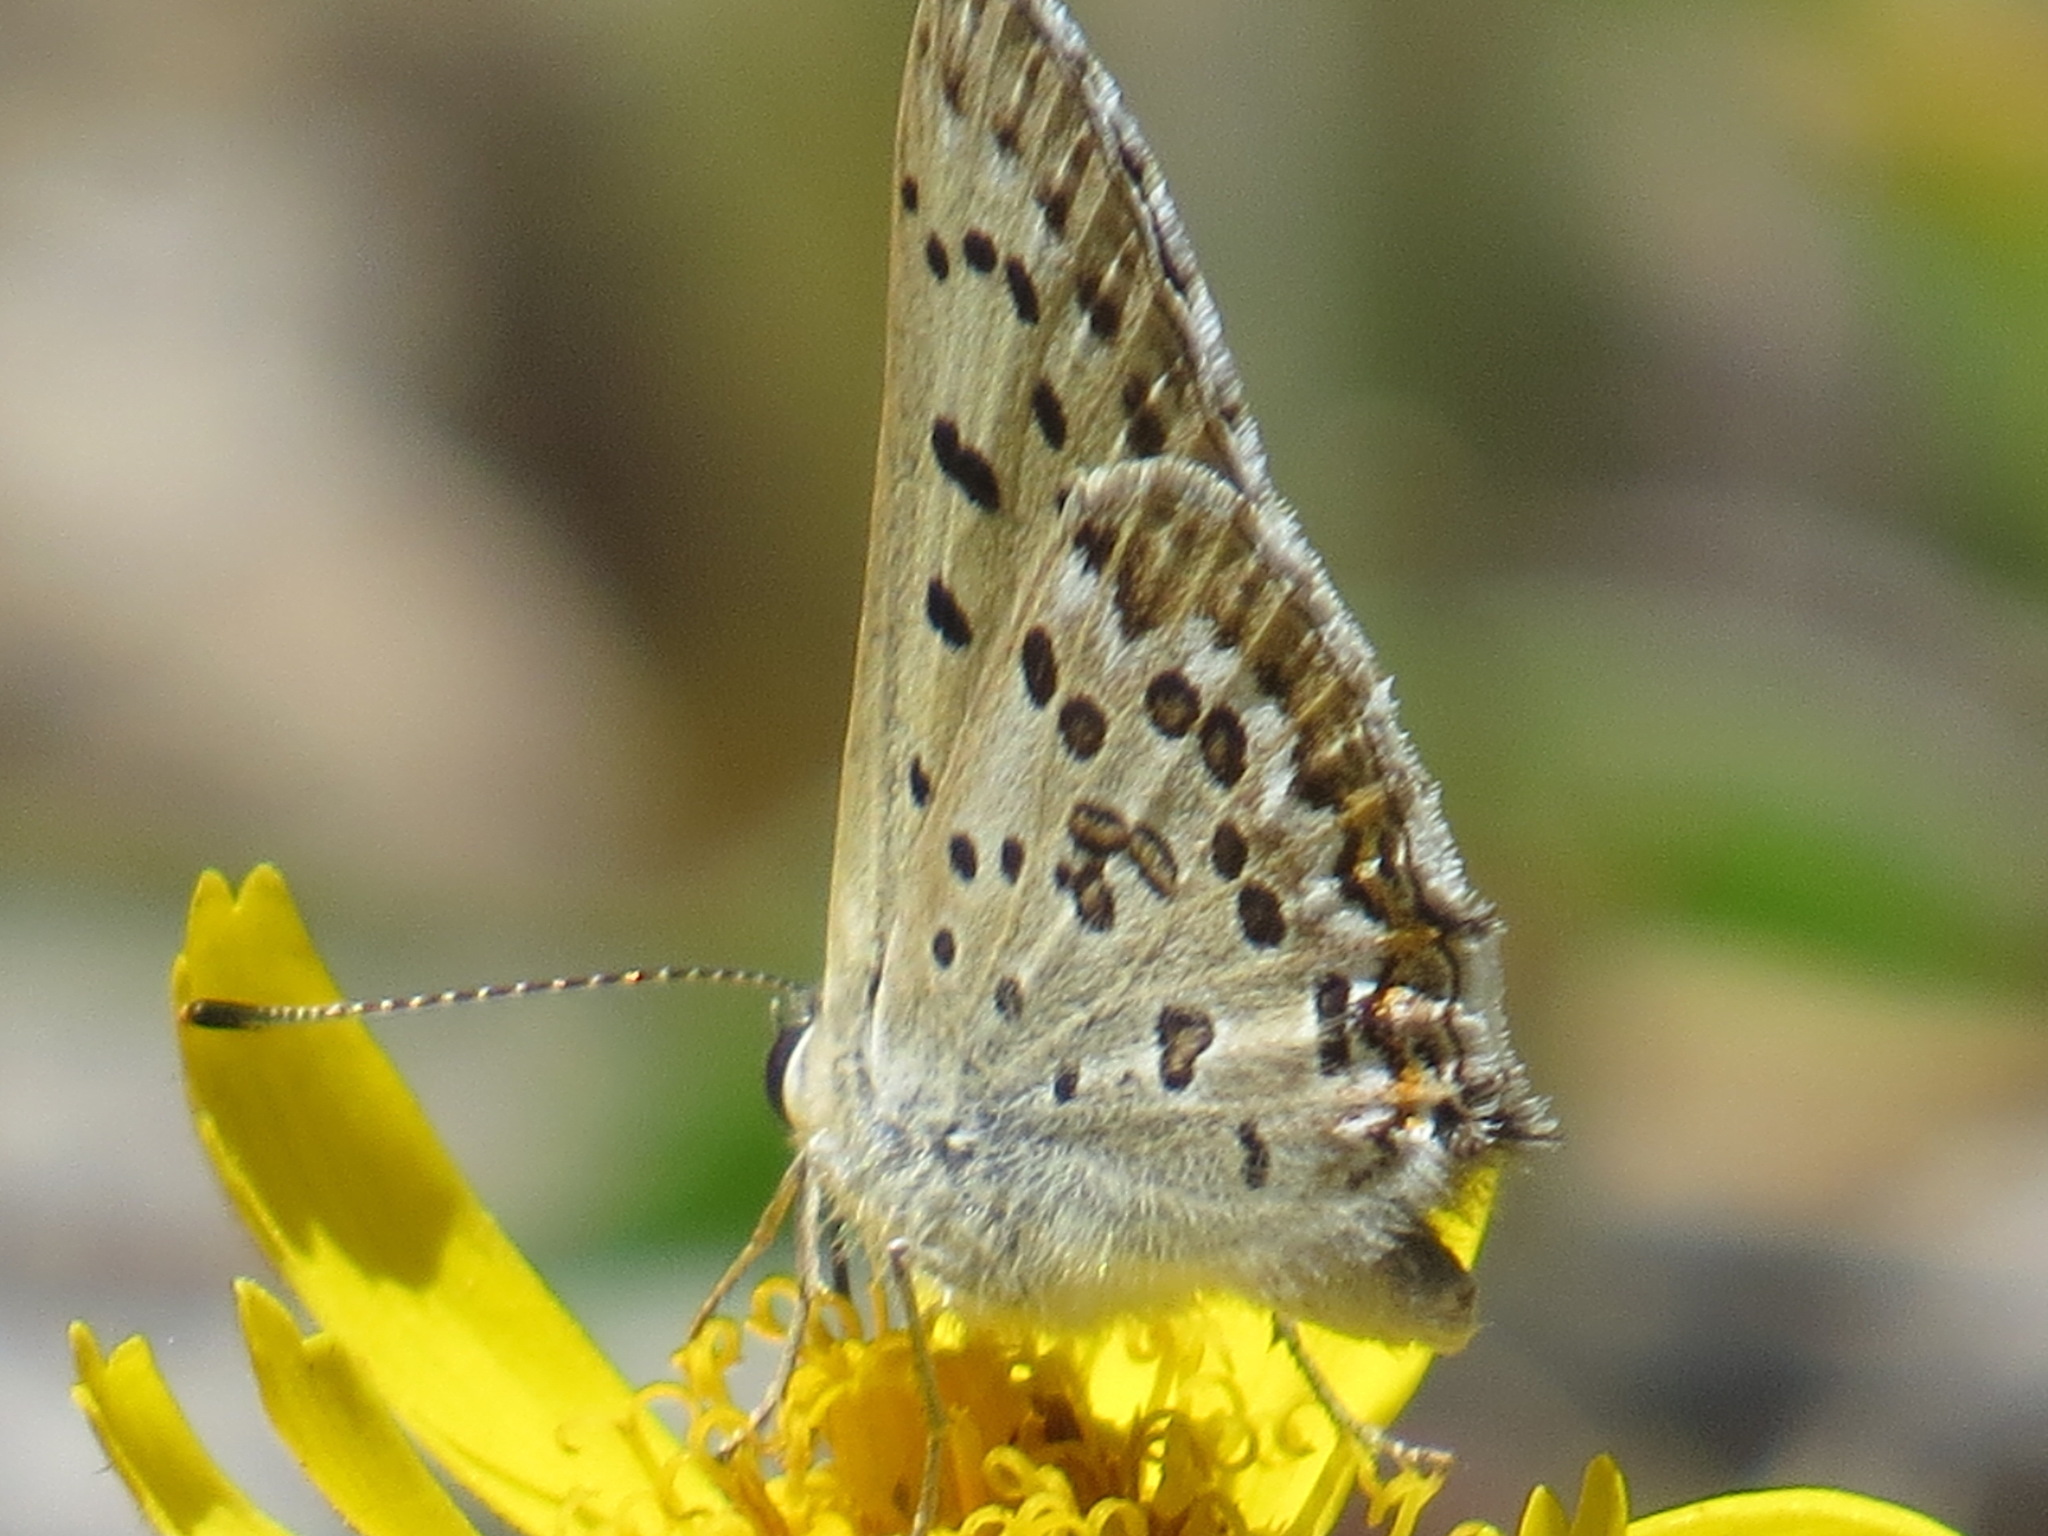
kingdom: Animalia
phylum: Arthropoda
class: Insecta
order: Lepidoptera
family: Lycaenidae
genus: Tharsalea
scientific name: Tharsalea editha
